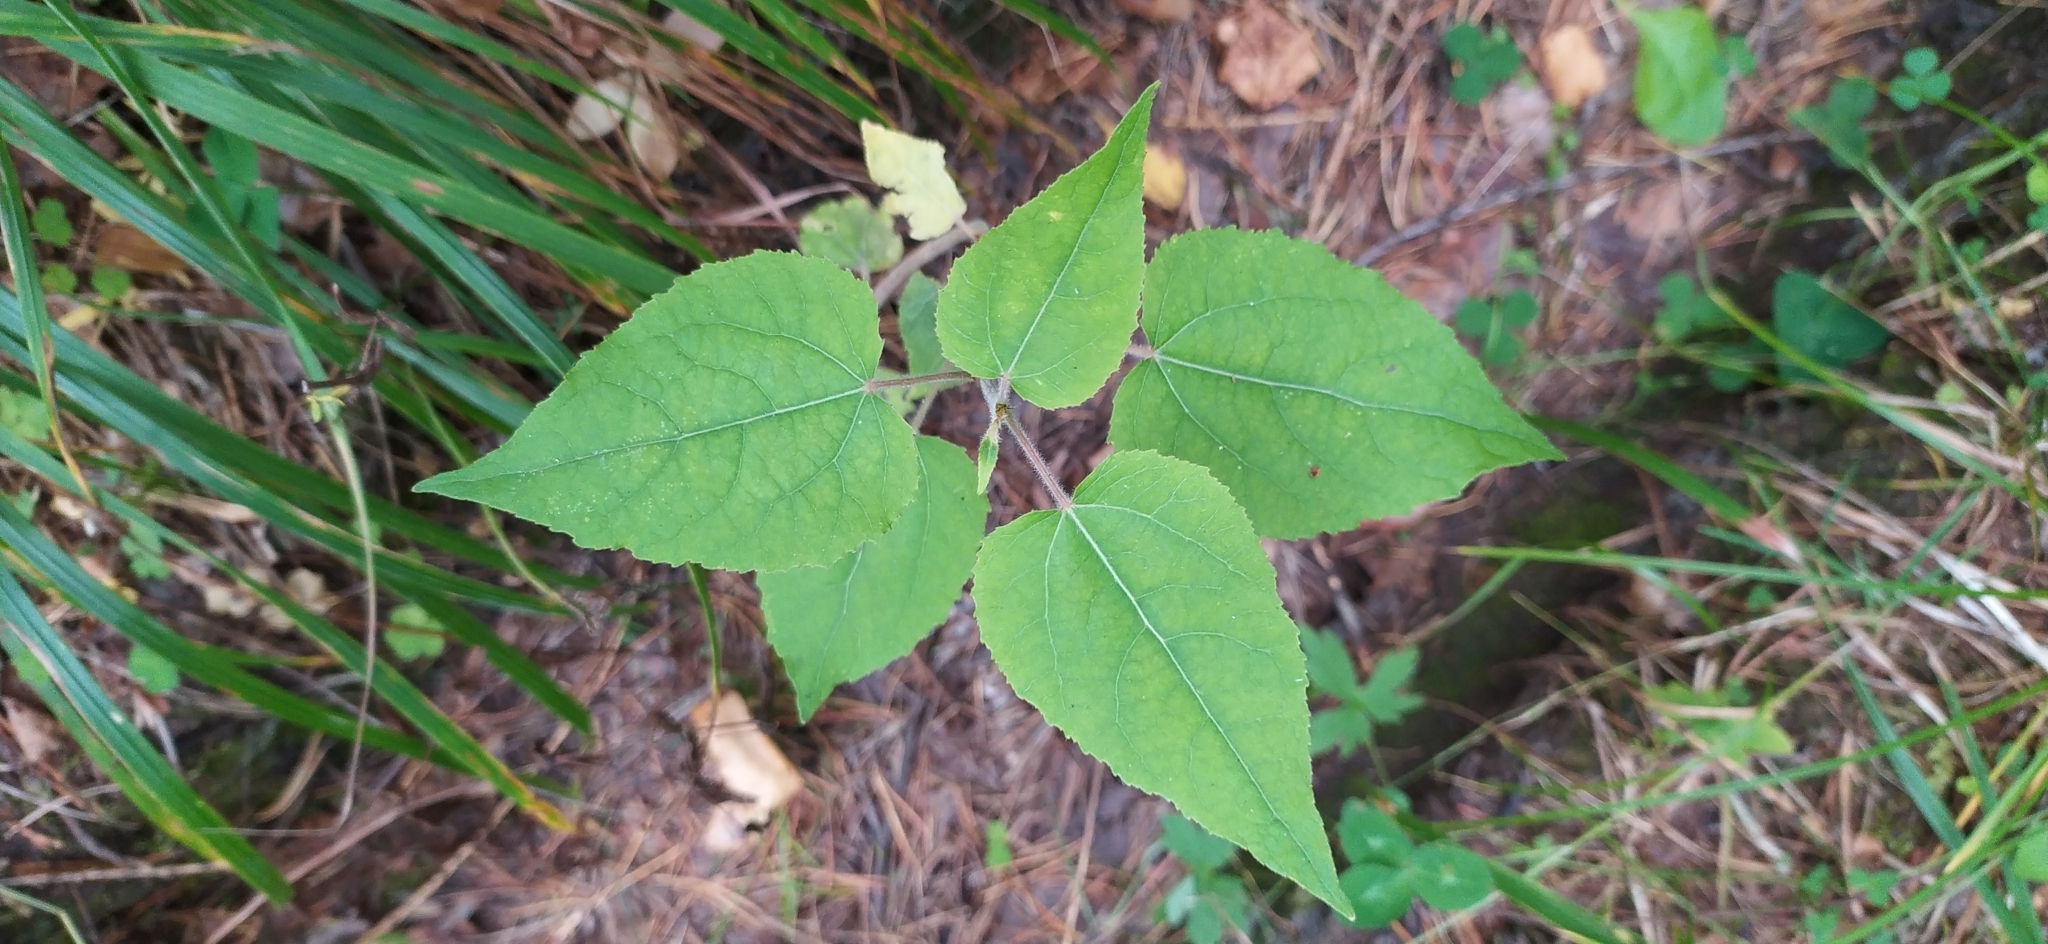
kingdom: Plantae
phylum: Tracheophyta
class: Magnoliopsida
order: Malpighiales
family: Salicaceae
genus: Populus
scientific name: Populus tremula
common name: European aspen
